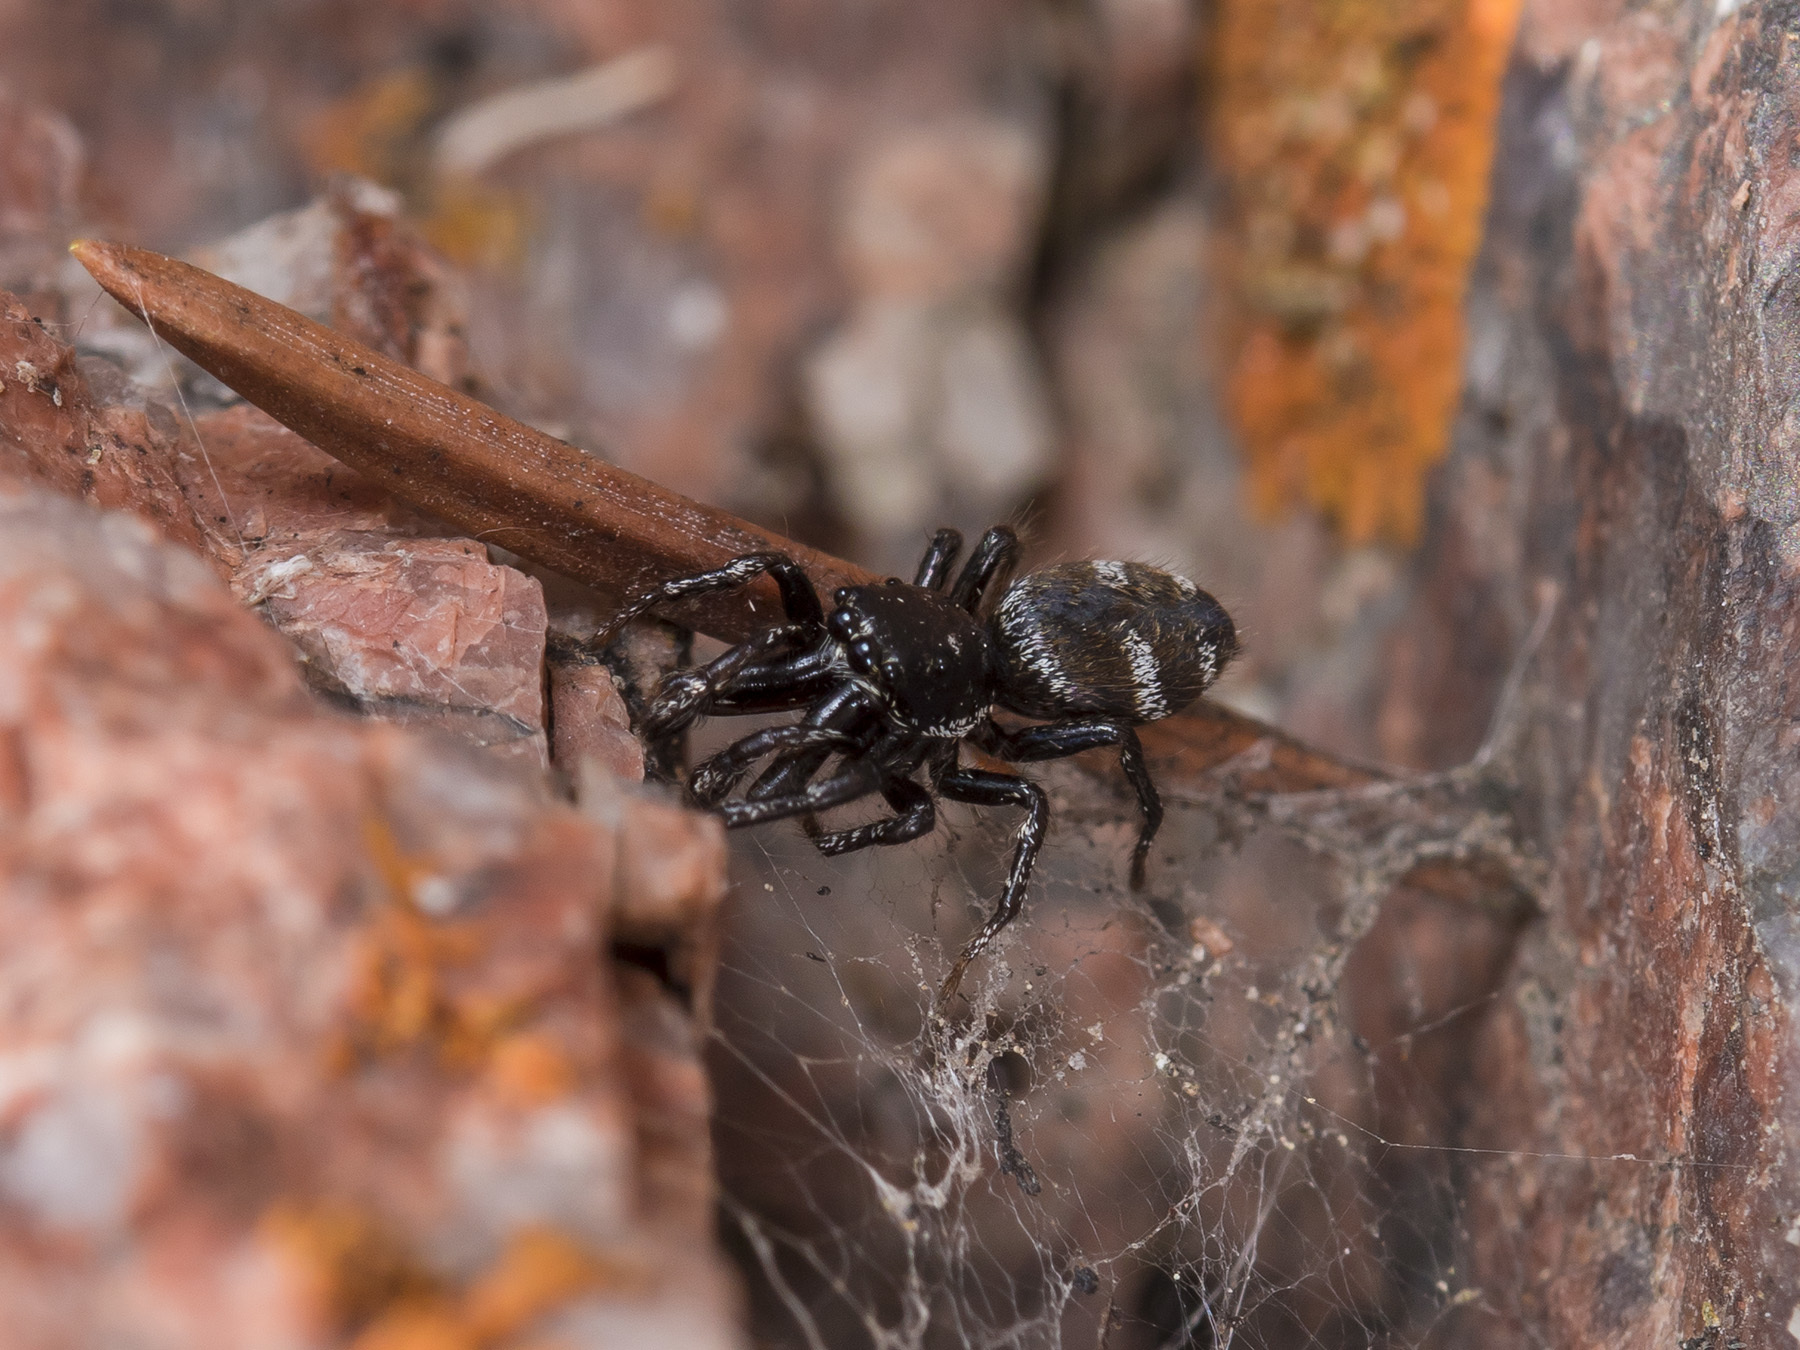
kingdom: Animalia
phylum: Arthropoda
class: Arachnida
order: Araneae
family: Salticidae
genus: Salticus
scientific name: Salticus scenicus
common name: Zebra jumper
